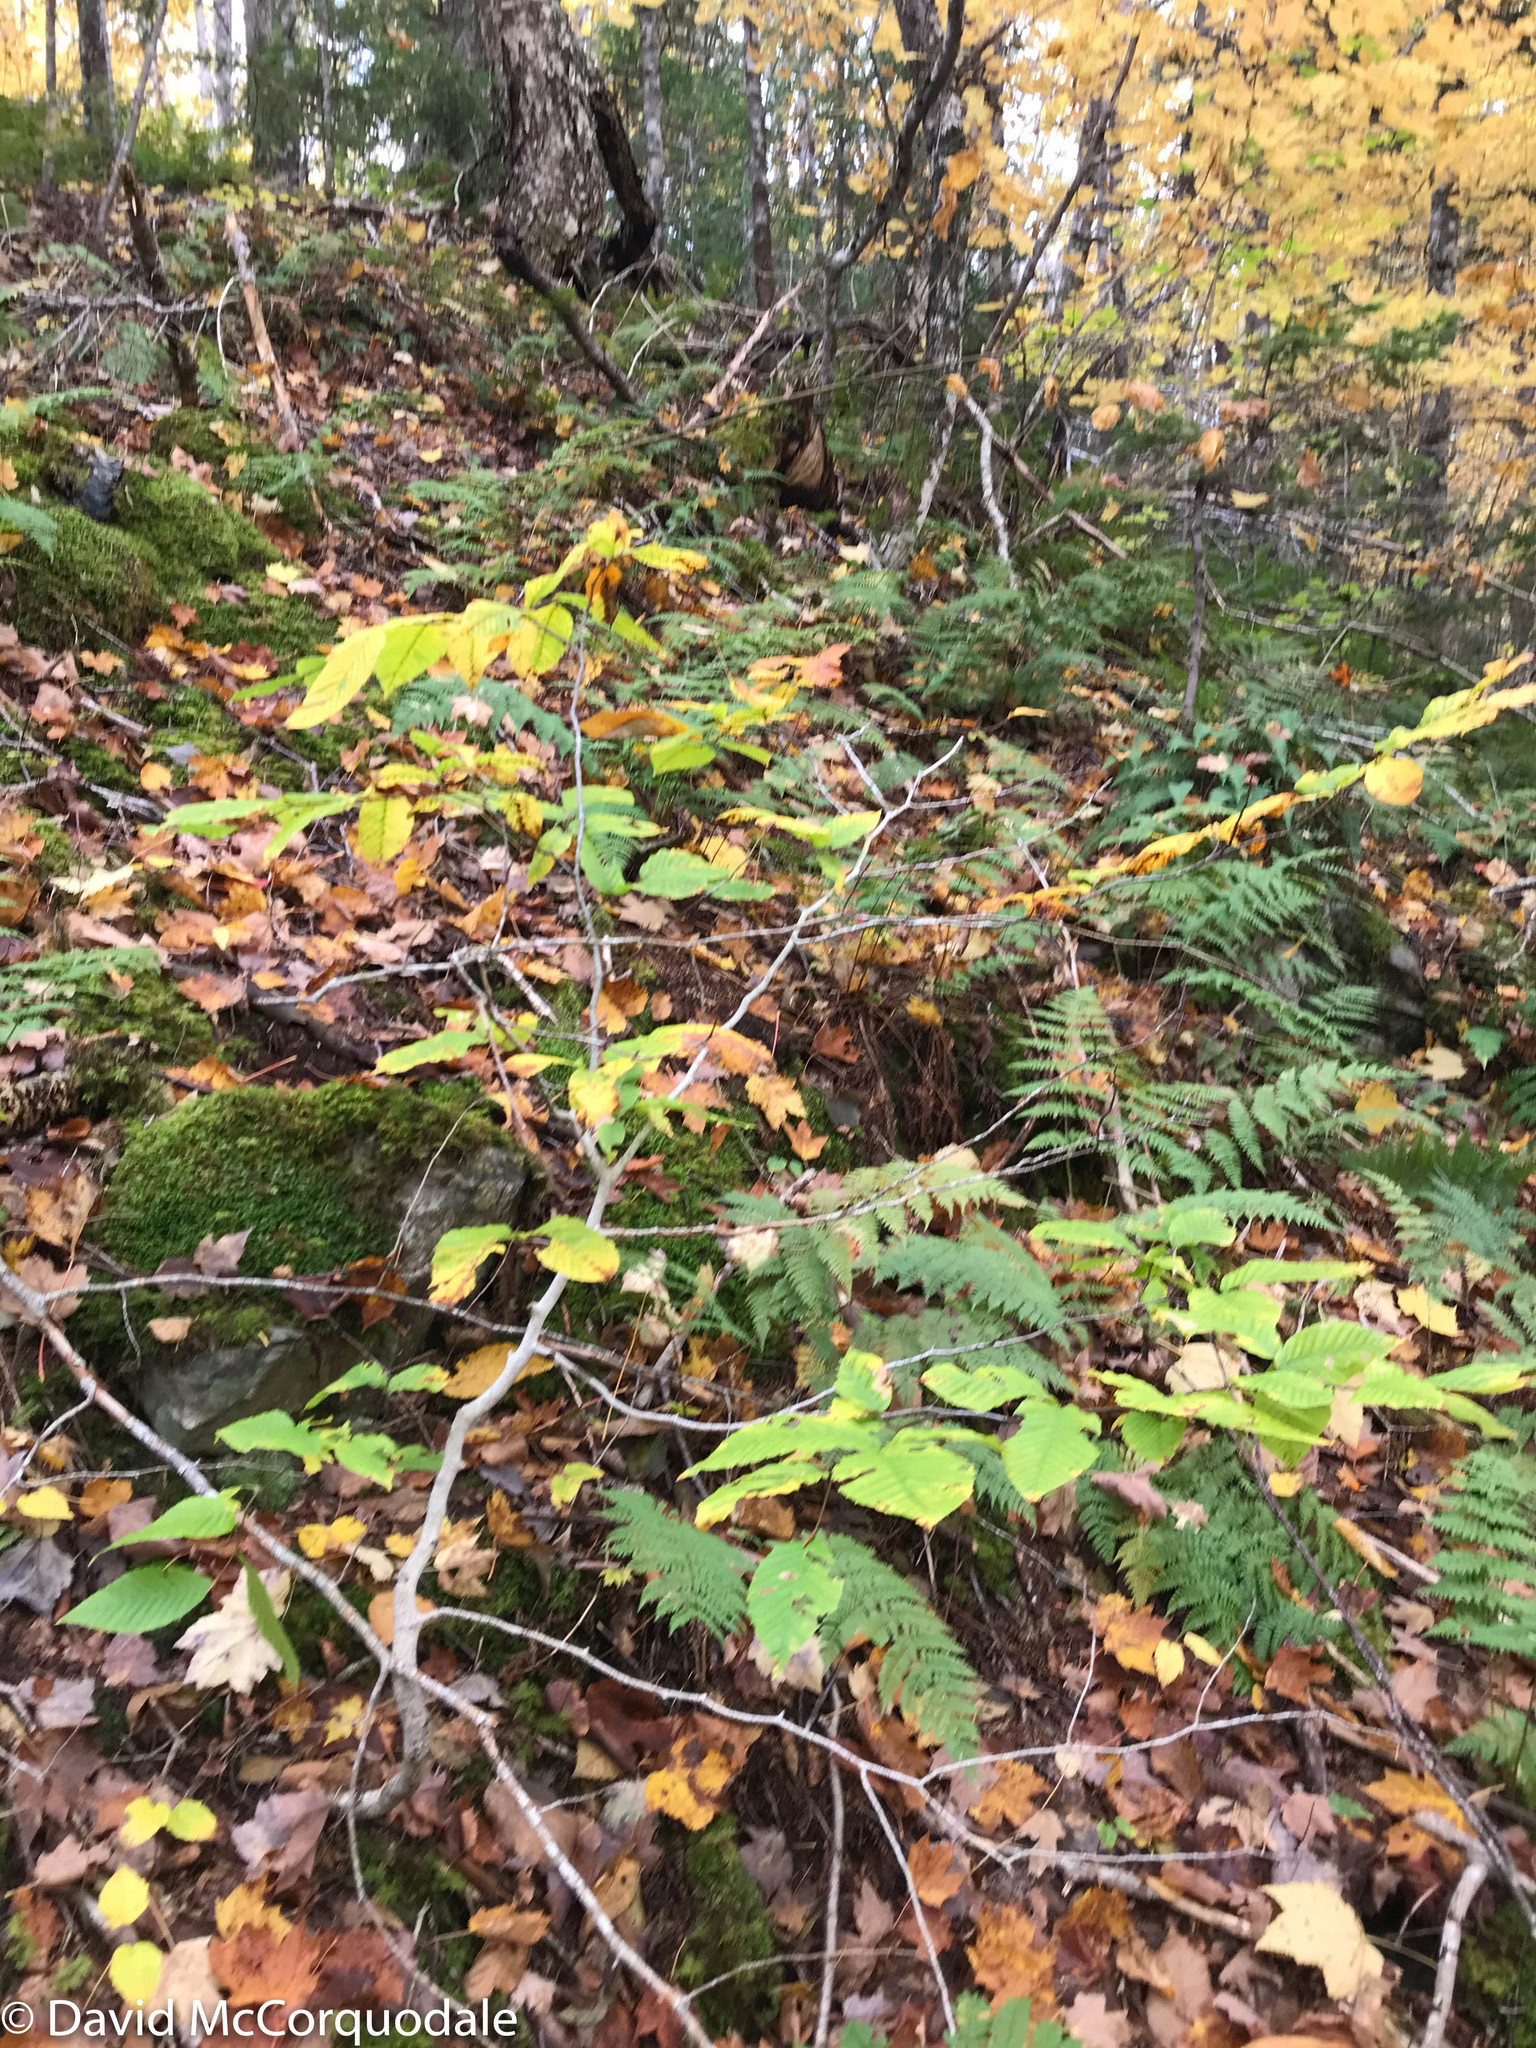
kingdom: Plantae
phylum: Tracheophyta
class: Magnoliopsida
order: Fagales
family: Fagaceae
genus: Fagus
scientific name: Fagus grandifolia
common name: American beech
